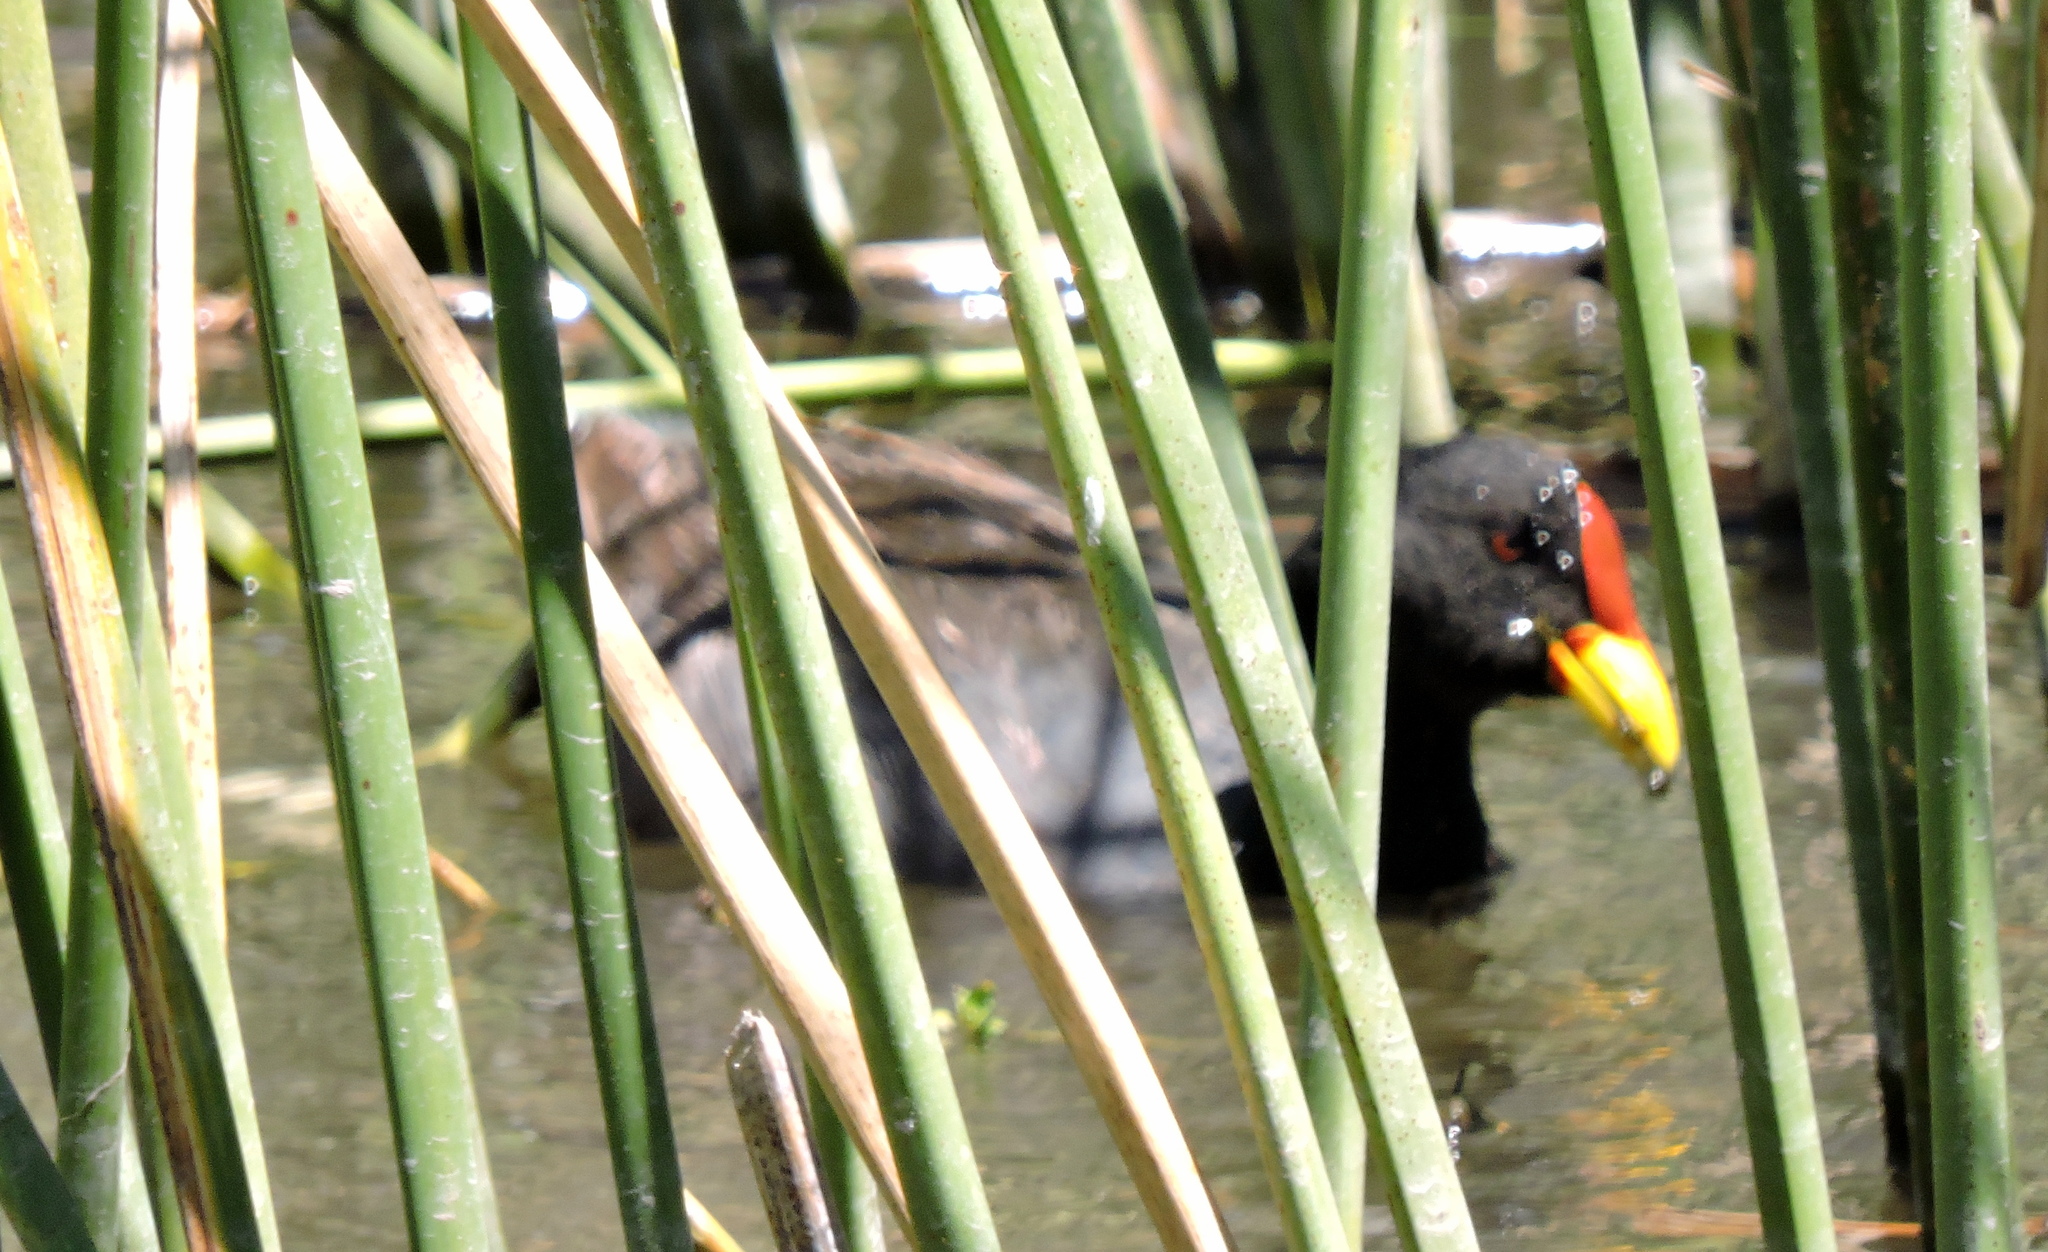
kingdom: Animalia
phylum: Chordata
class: Aves
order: Gruiformes
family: Rallidae
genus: Fulica
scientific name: Fulica rufifrons
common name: Red-fronted coot
